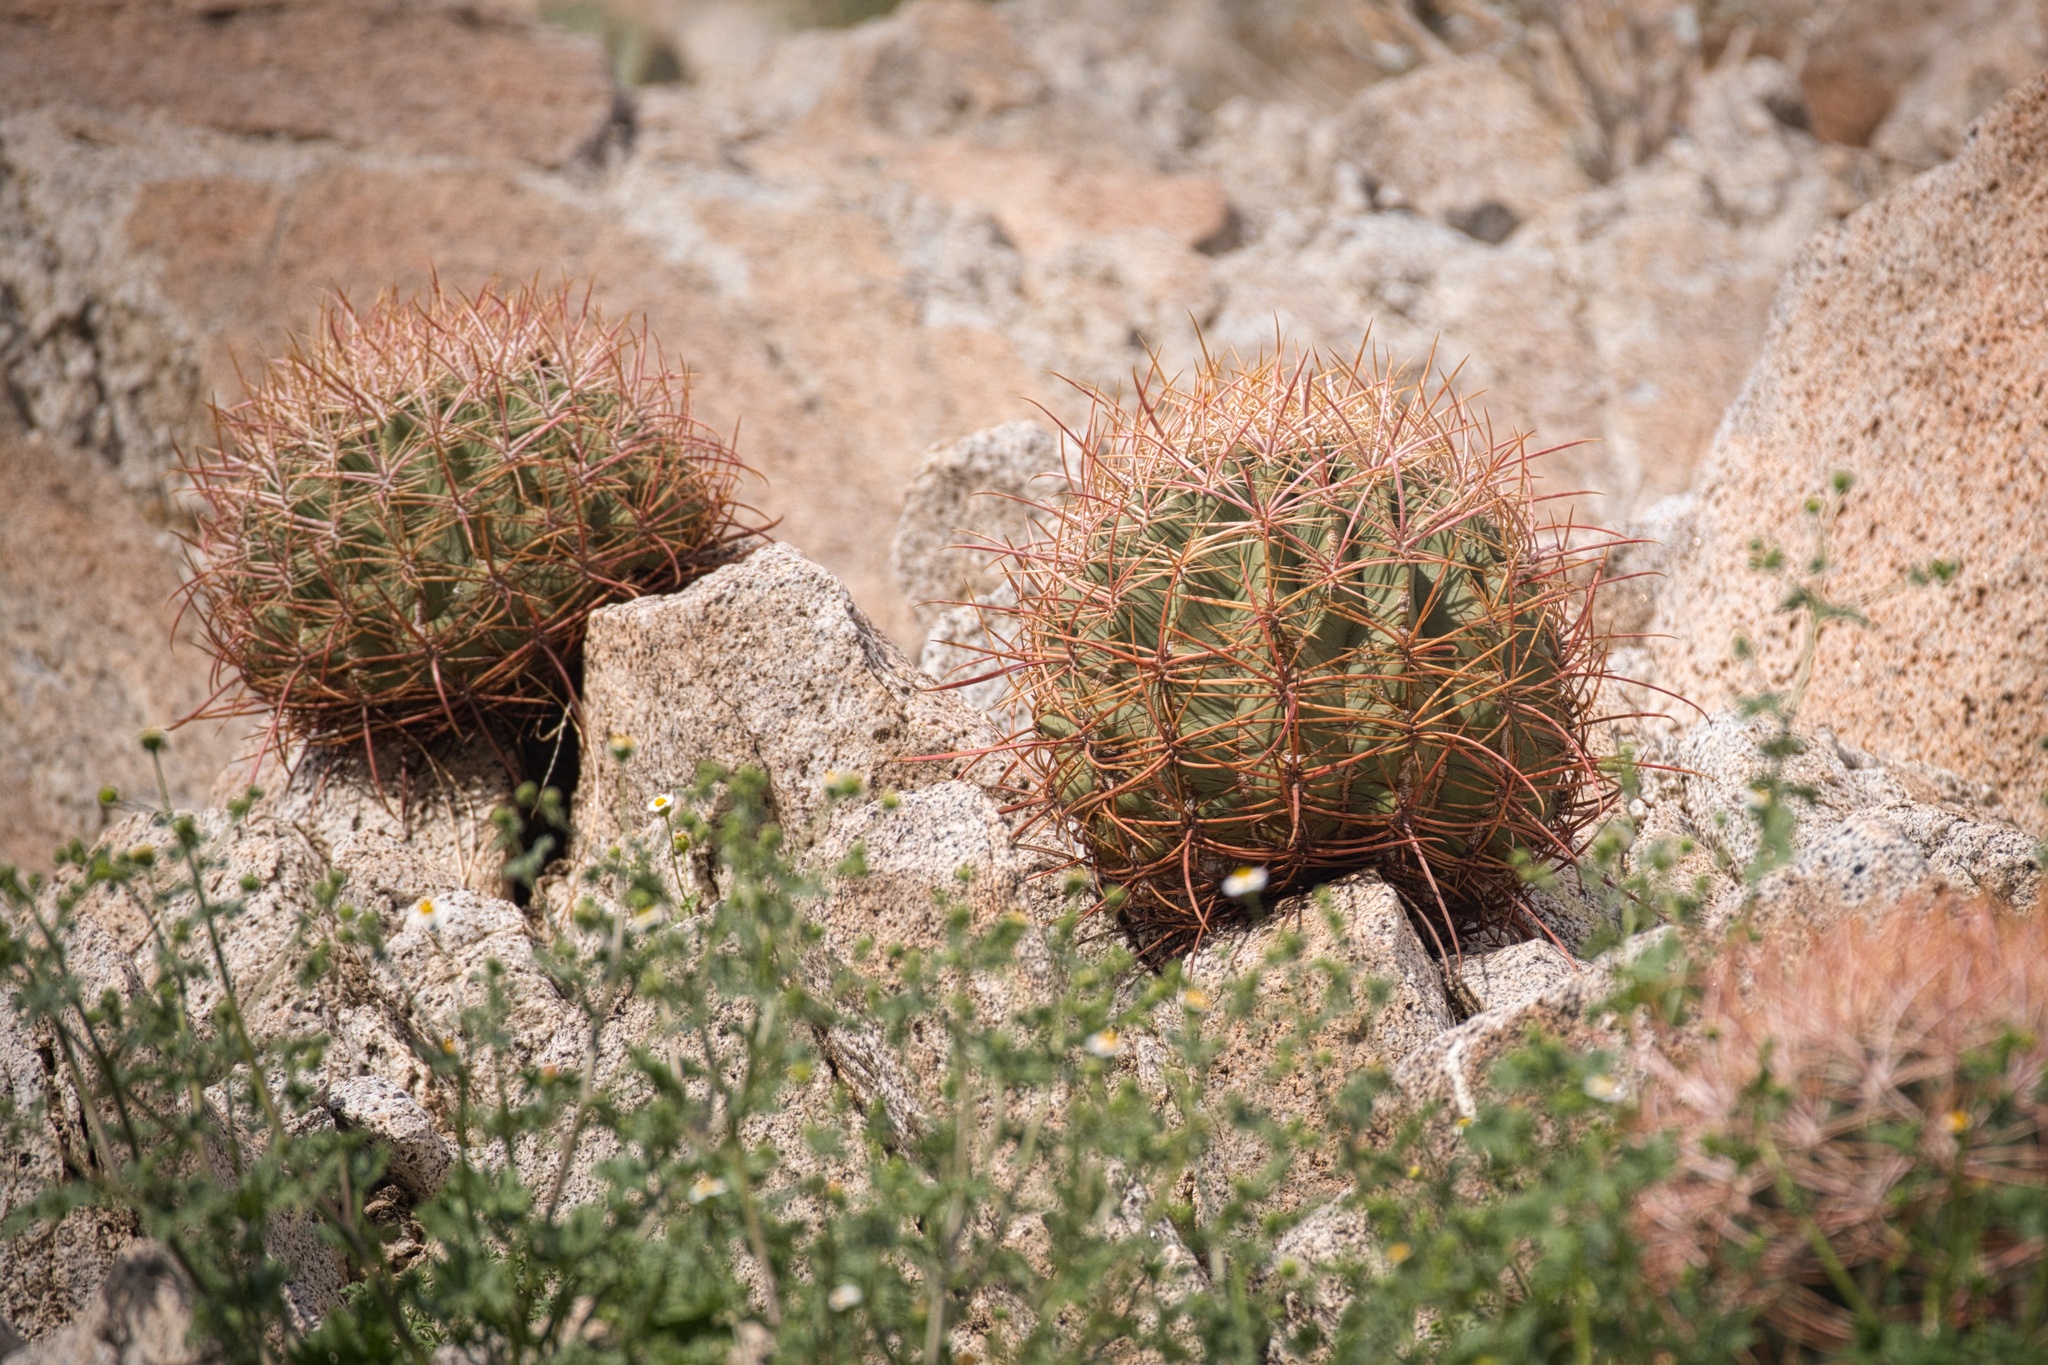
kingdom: Plantae
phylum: Tracheophyta
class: Magnoliopsida
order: Caryophyllales
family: Cactaceae
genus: Ferocactus
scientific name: Ferocactus cylindraceus
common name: California barrel cactus
